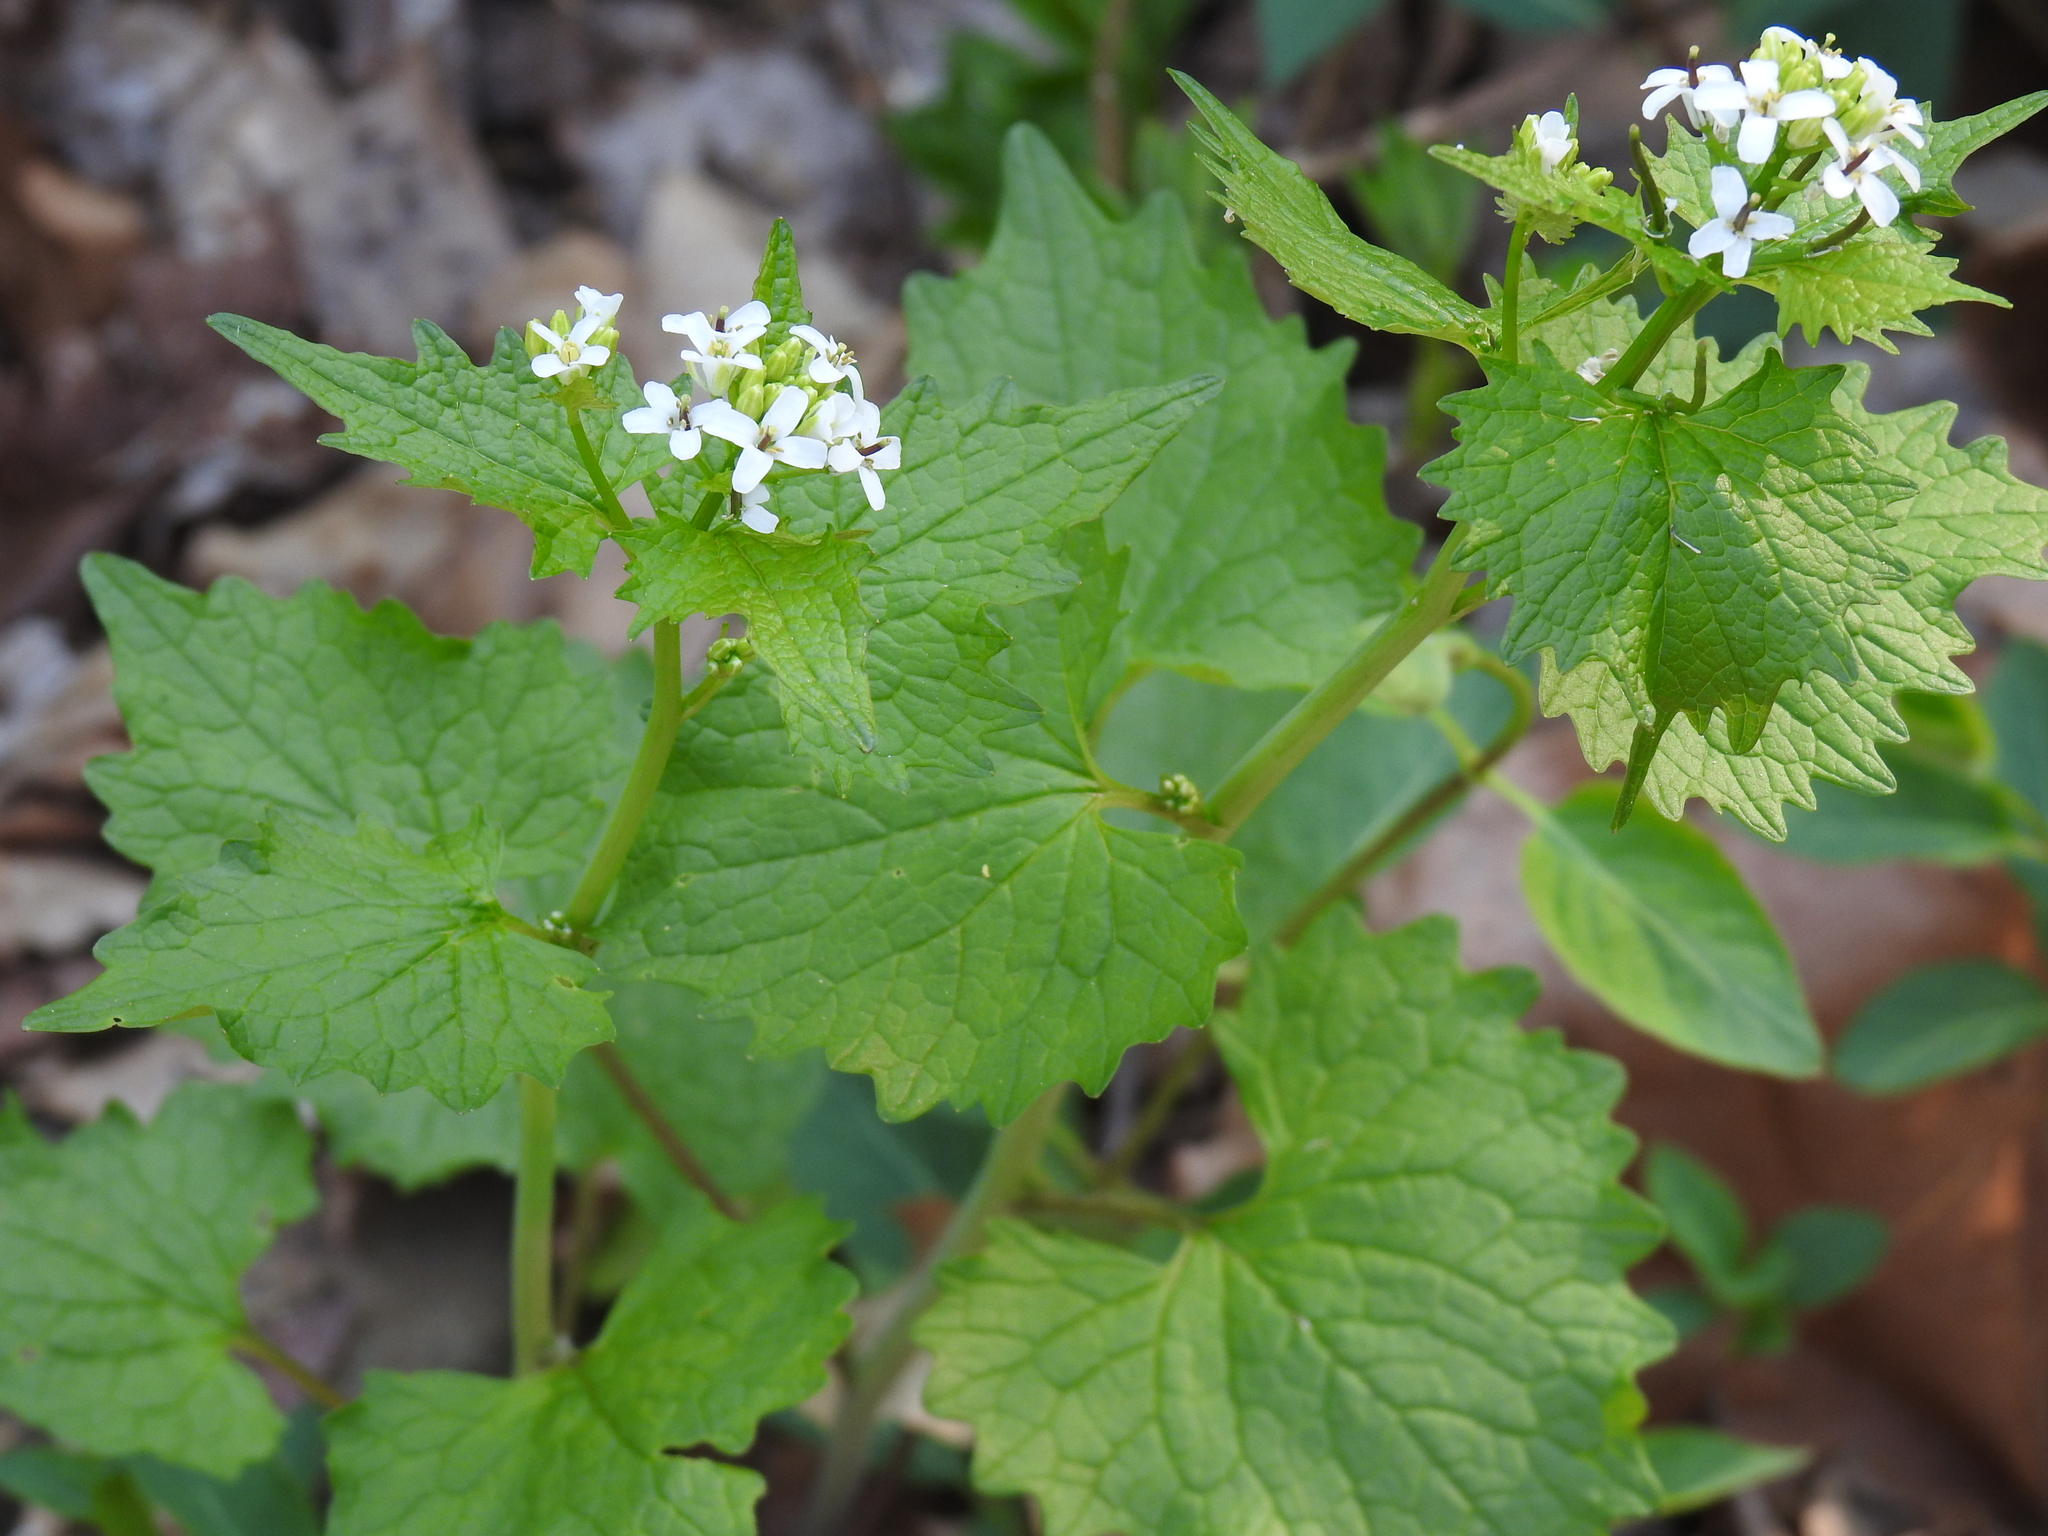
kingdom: Plantae
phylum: Tracheophyta
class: Magnoliopsida
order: Brassicales
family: Brassicaceae
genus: Alliaria
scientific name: Alliaria petiolata
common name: Garlic mustard
